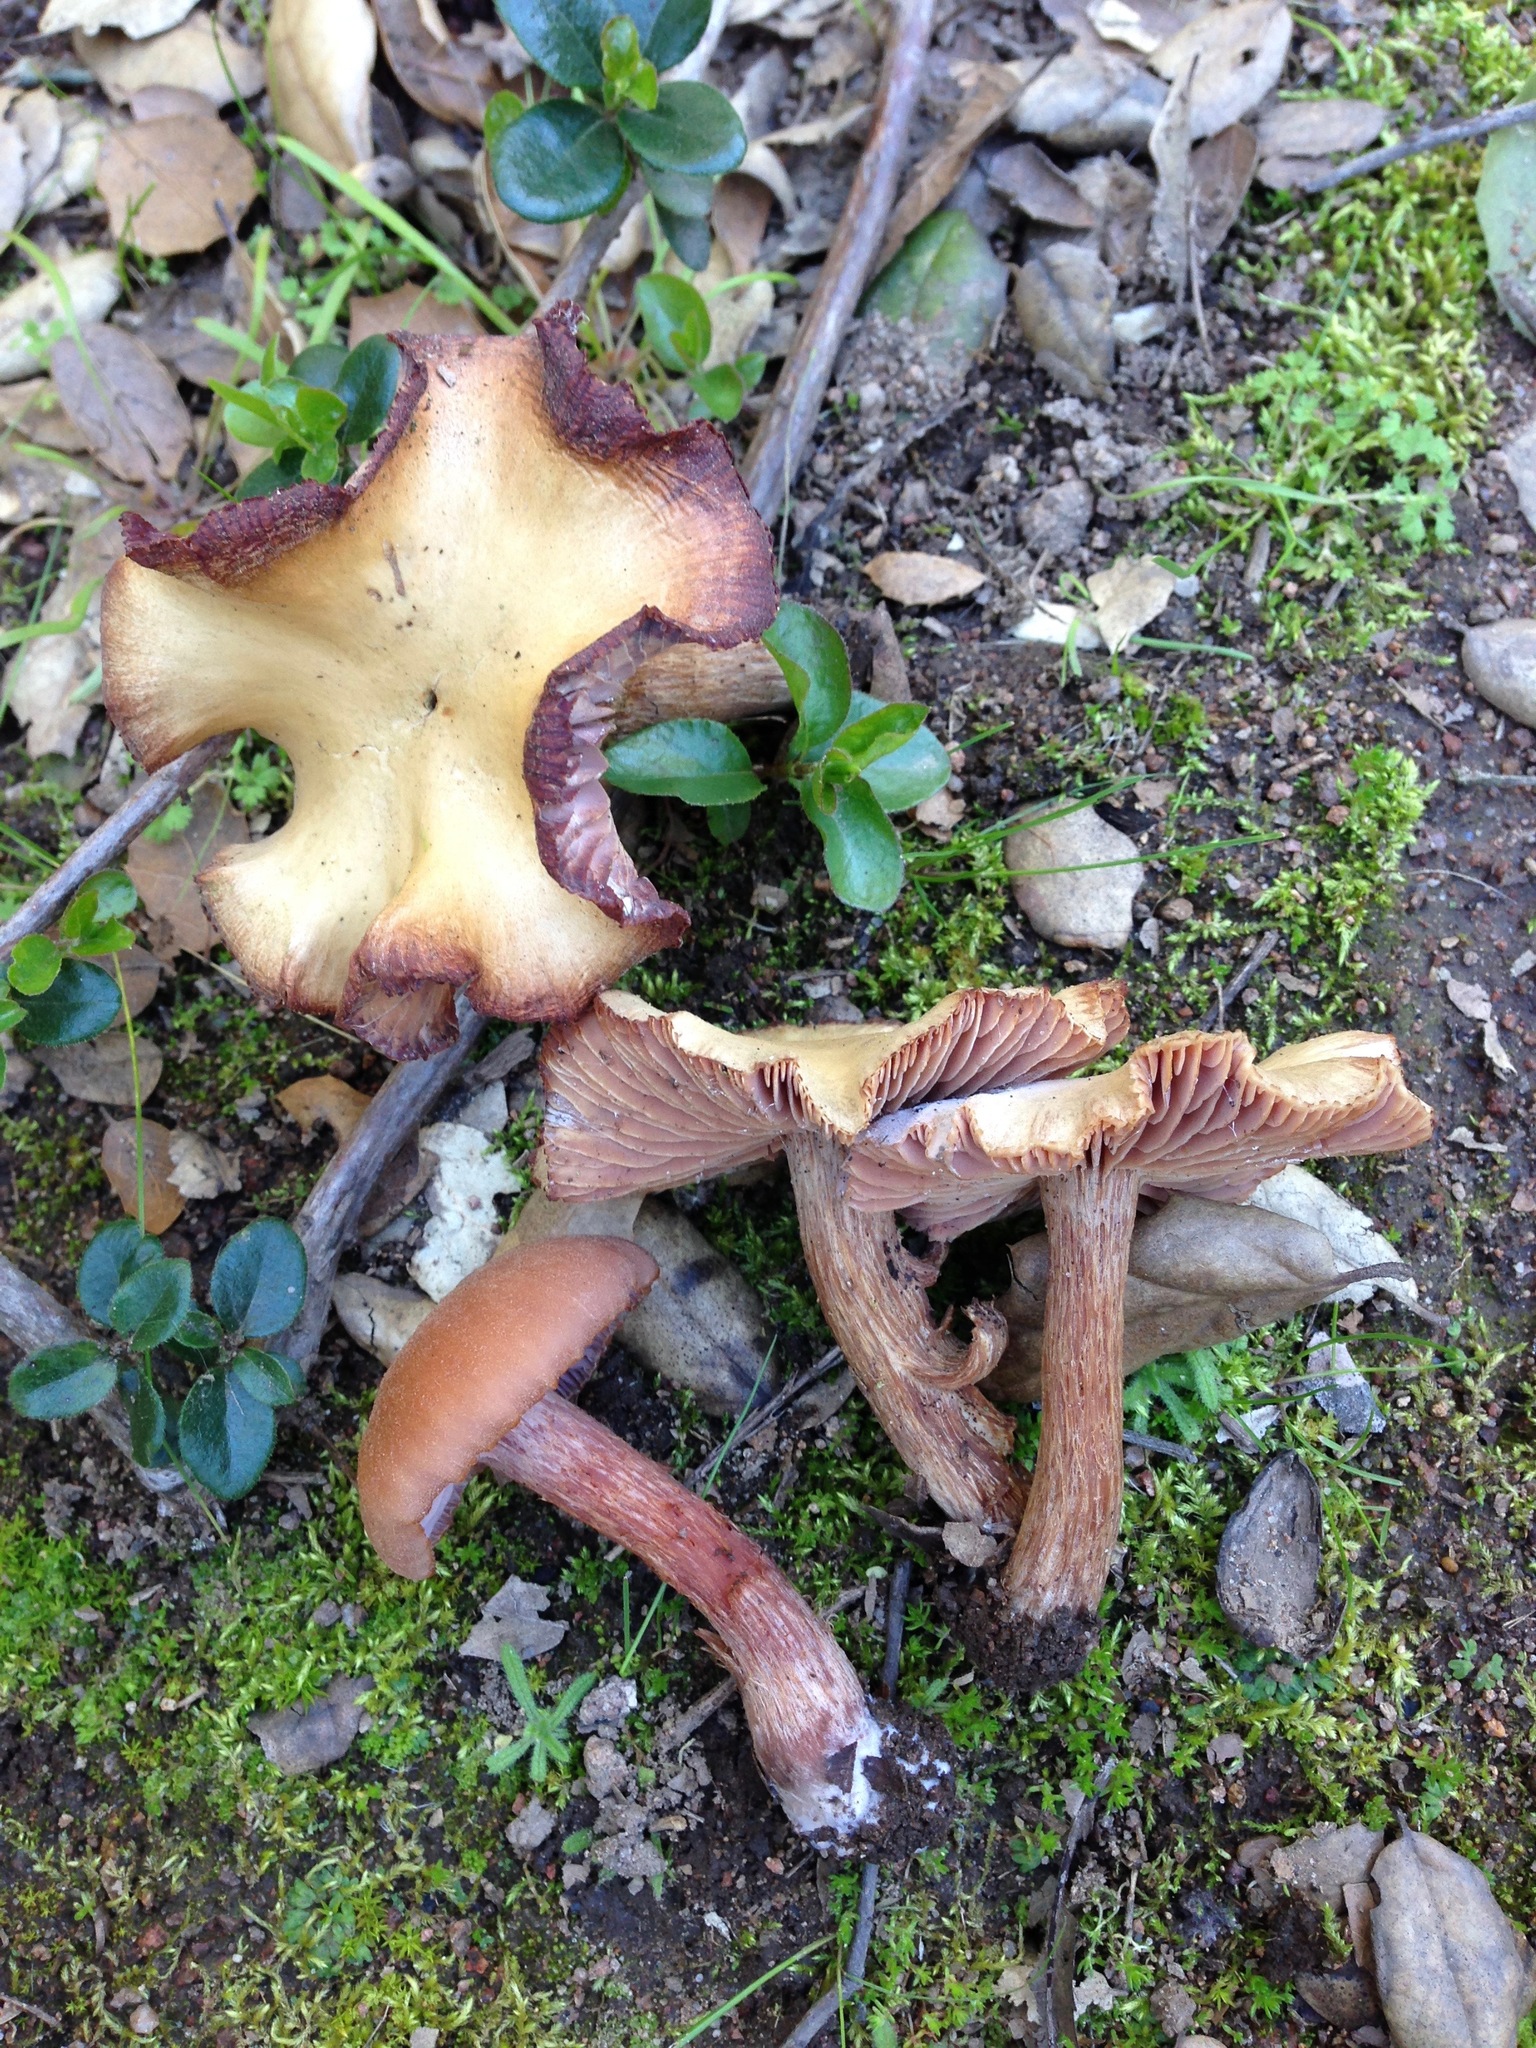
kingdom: Fungi
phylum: Basidiomycota
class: Agaricomycetes
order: Agaricales
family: Hydnangiaceae
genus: Laccaria
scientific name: Laccaria amethysteo-occidentalis
